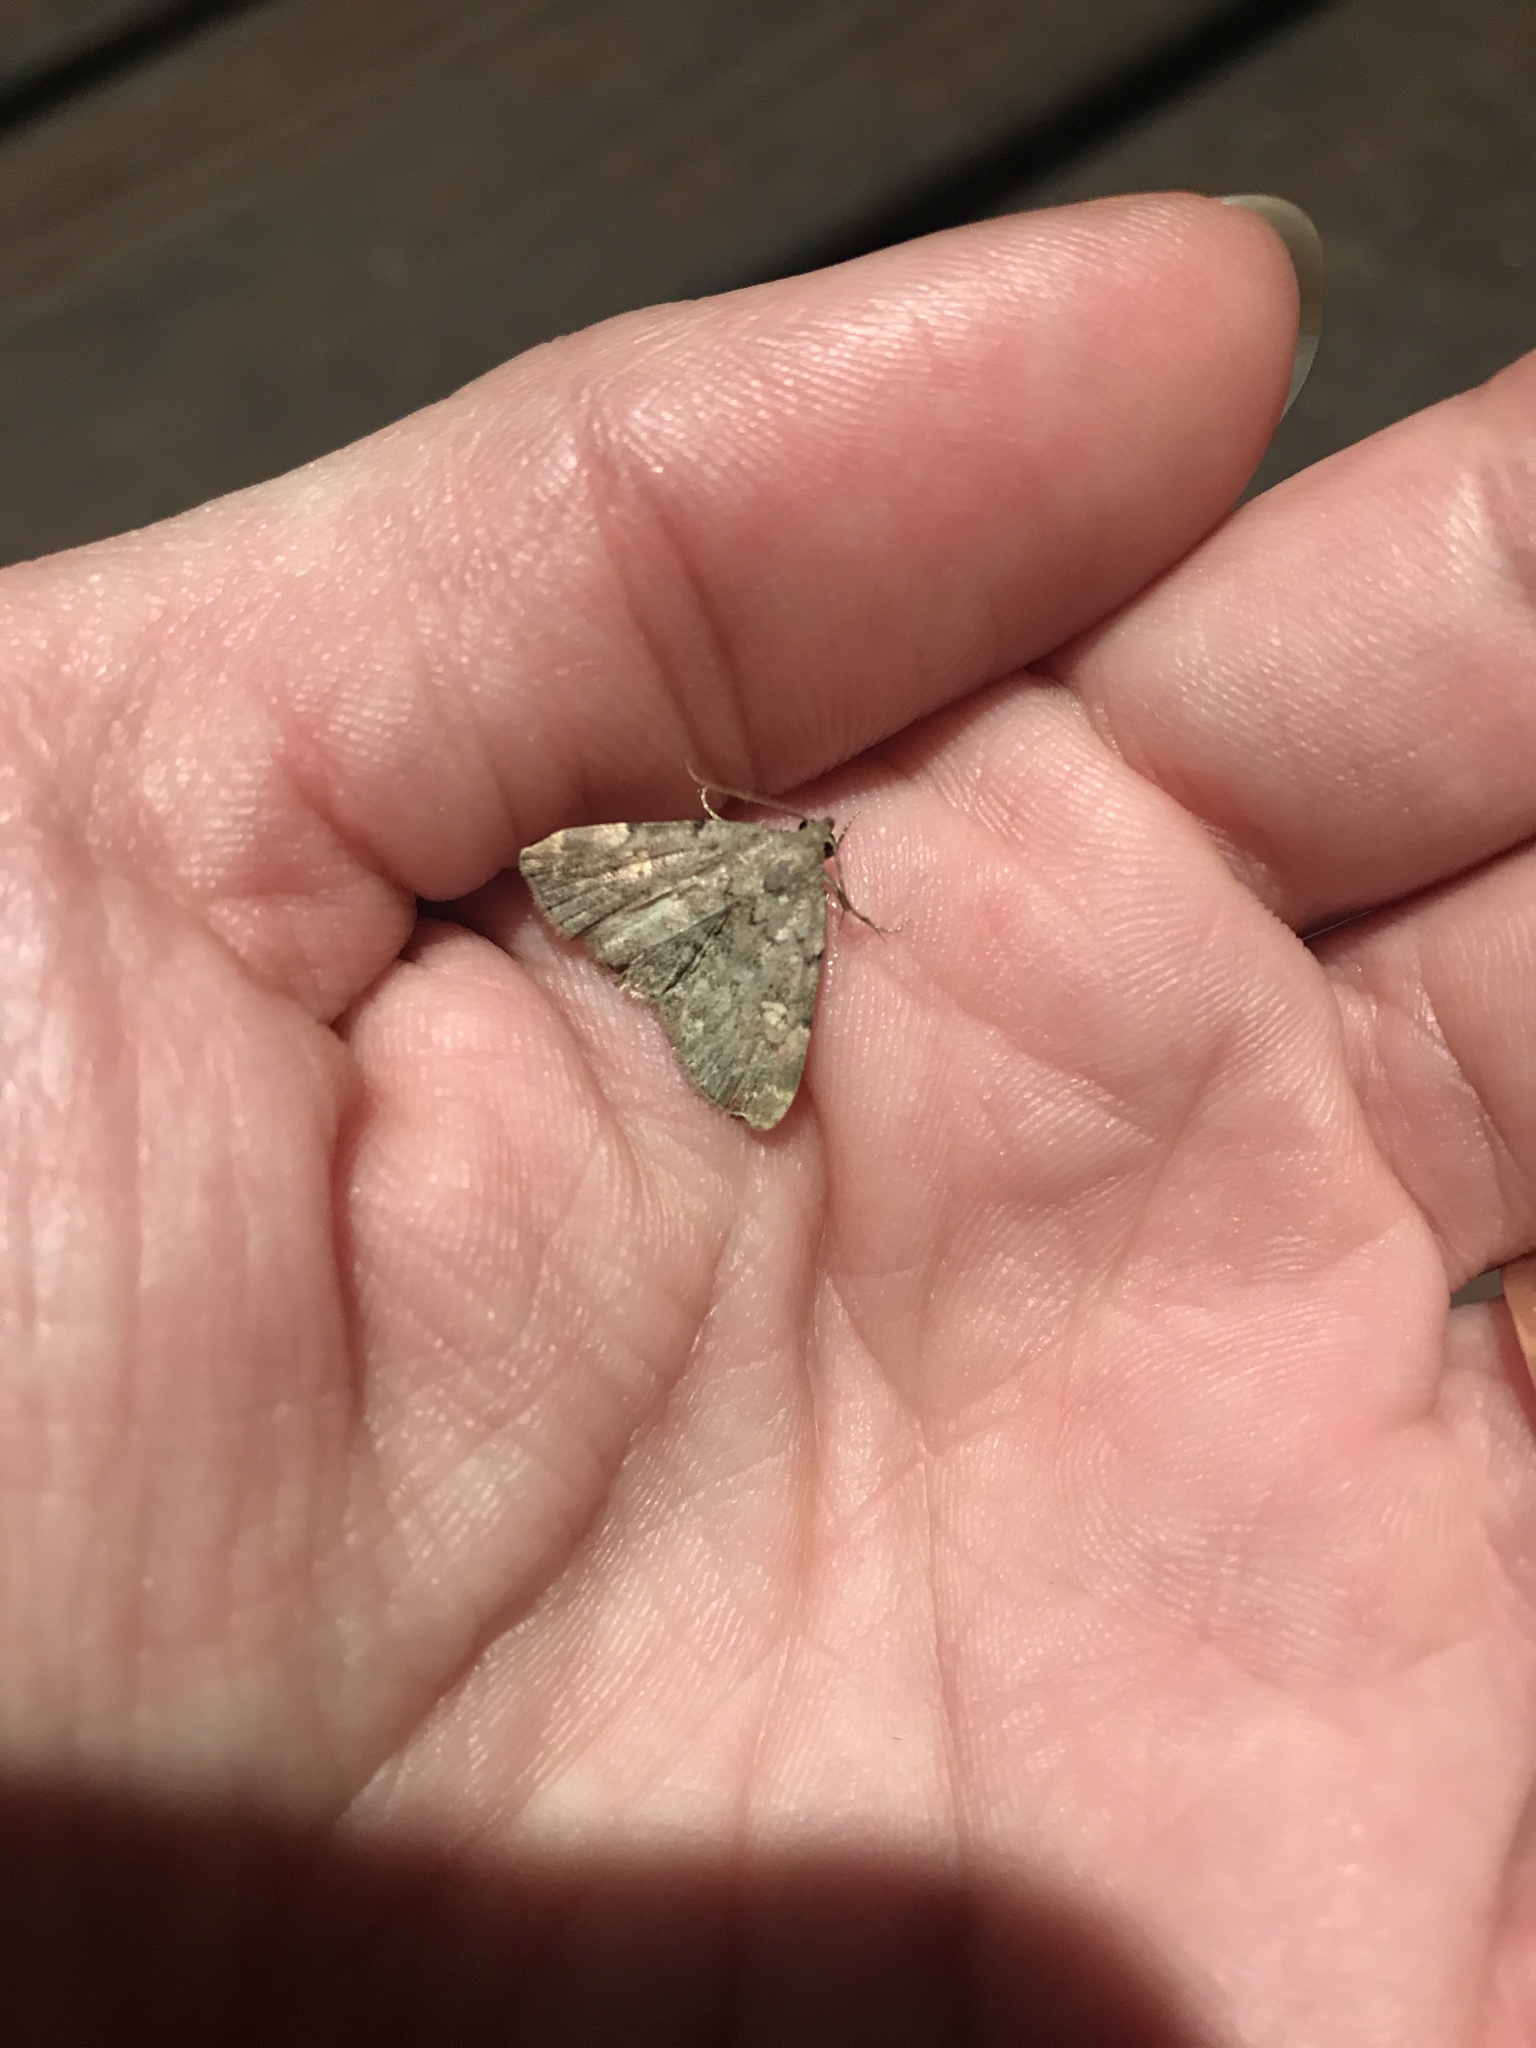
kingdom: Animalia
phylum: Arthropoda
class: Insecta
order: Lepidoptera
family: Erebidae
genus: Idia
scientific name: Idia aemula
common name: Common idia moth
